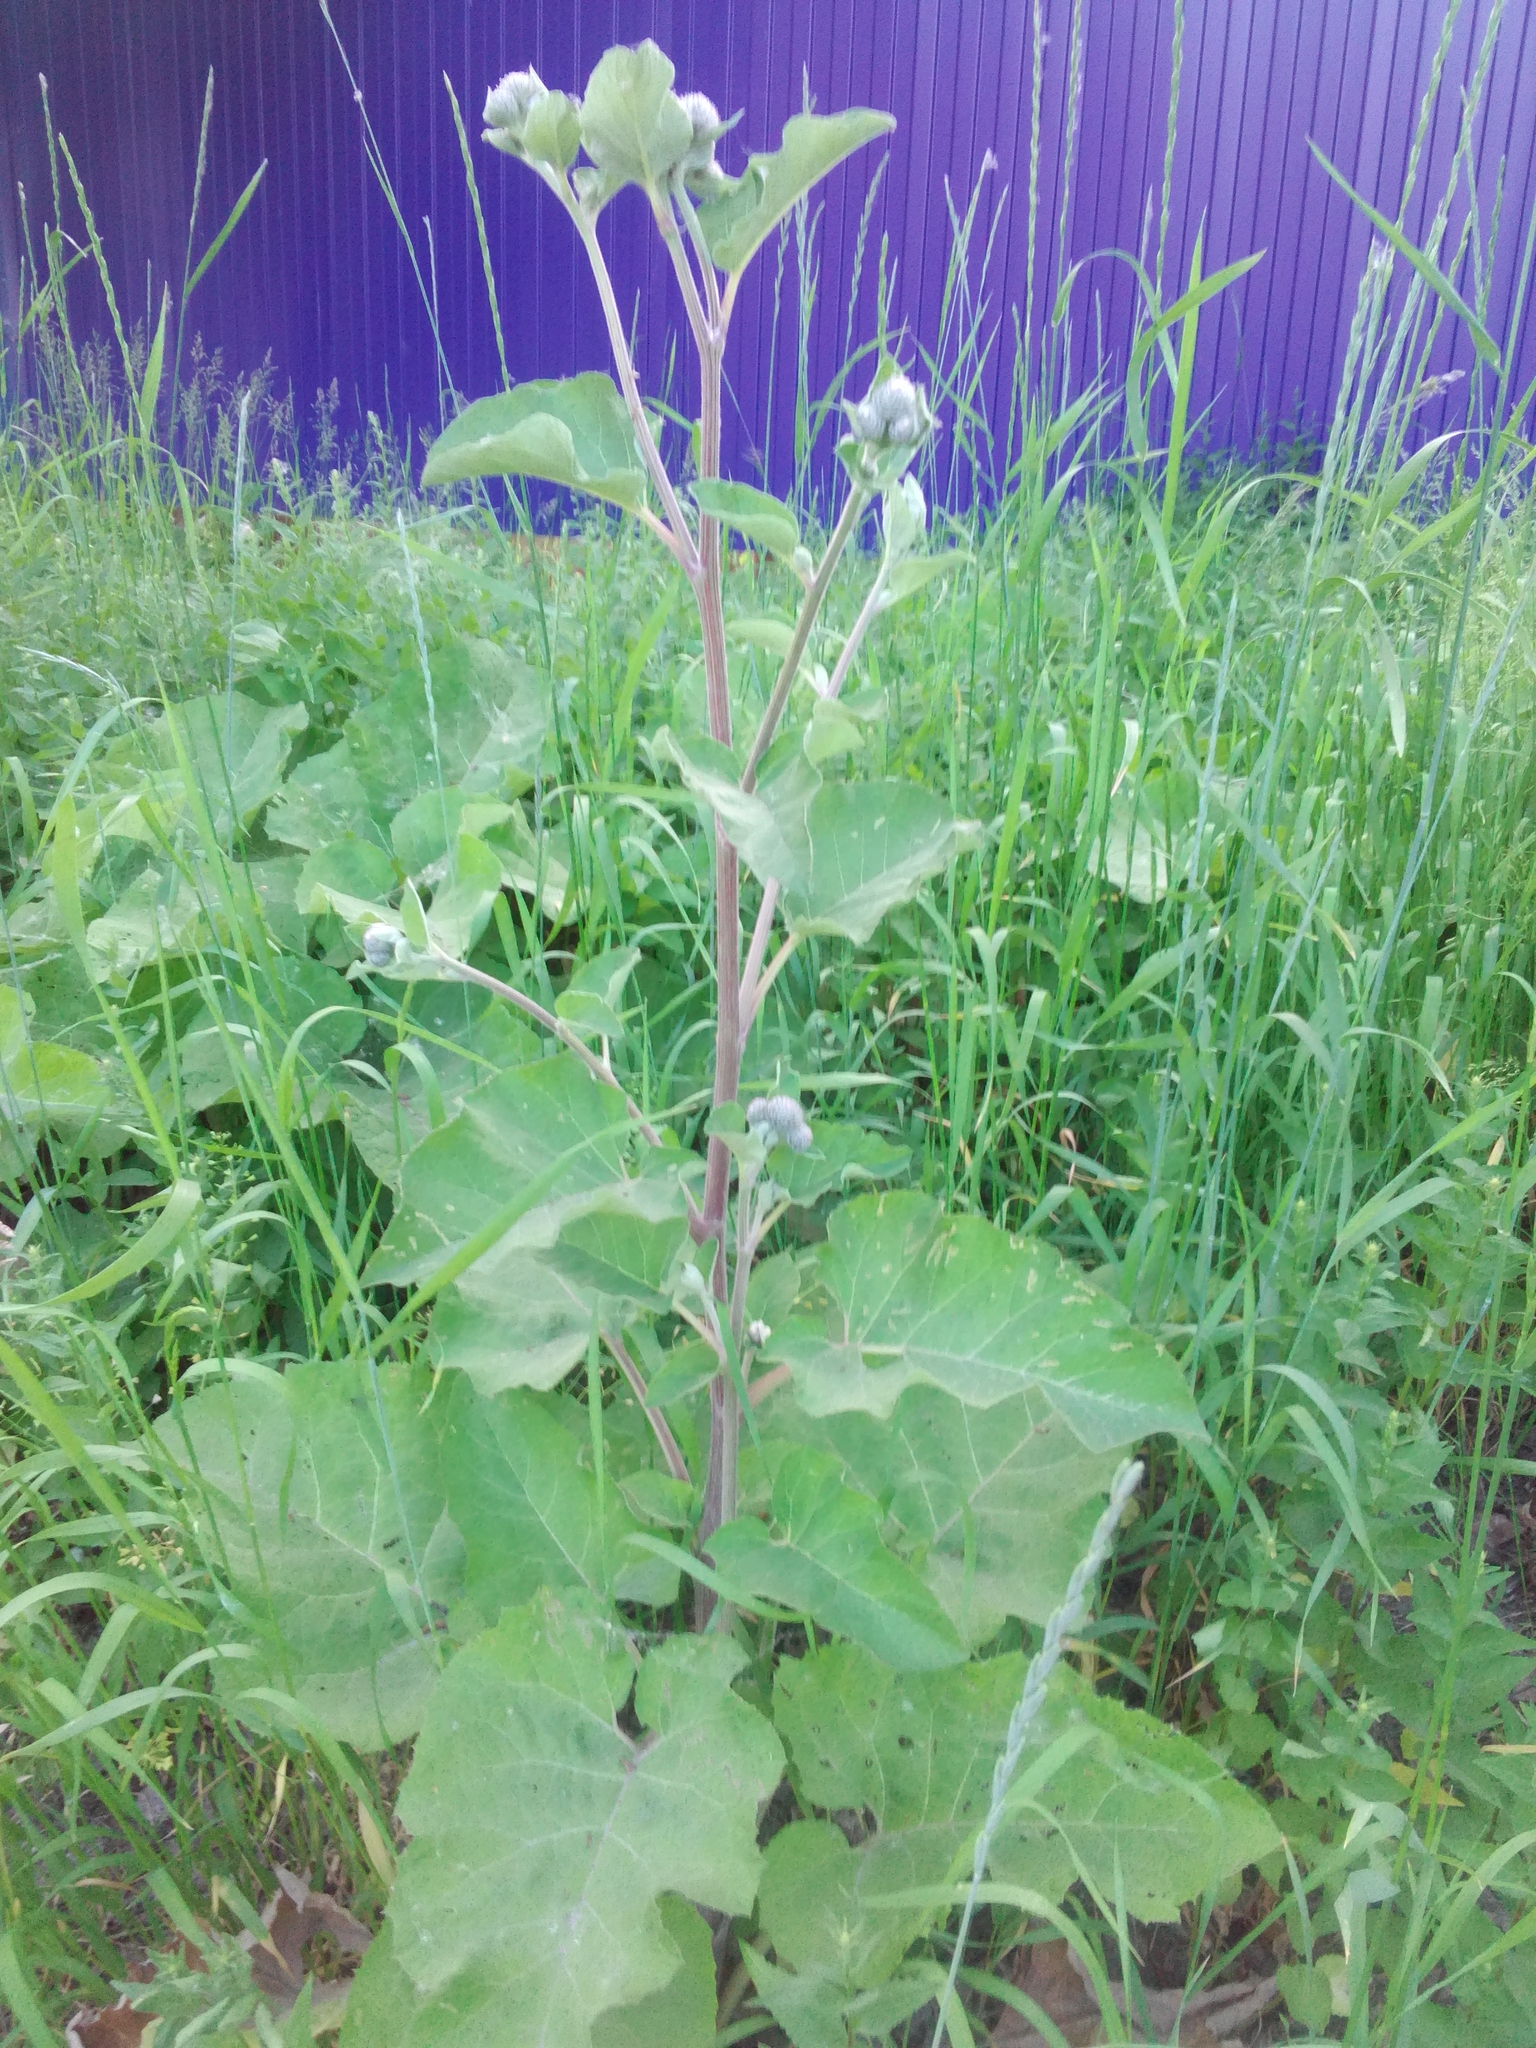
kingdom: Plantae
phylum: Tracheophyta
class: Magnoliopsida
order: Asterales
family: Asteraceae
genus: Arctium
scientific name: Arctium tomentosum
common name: Woolly burdock
